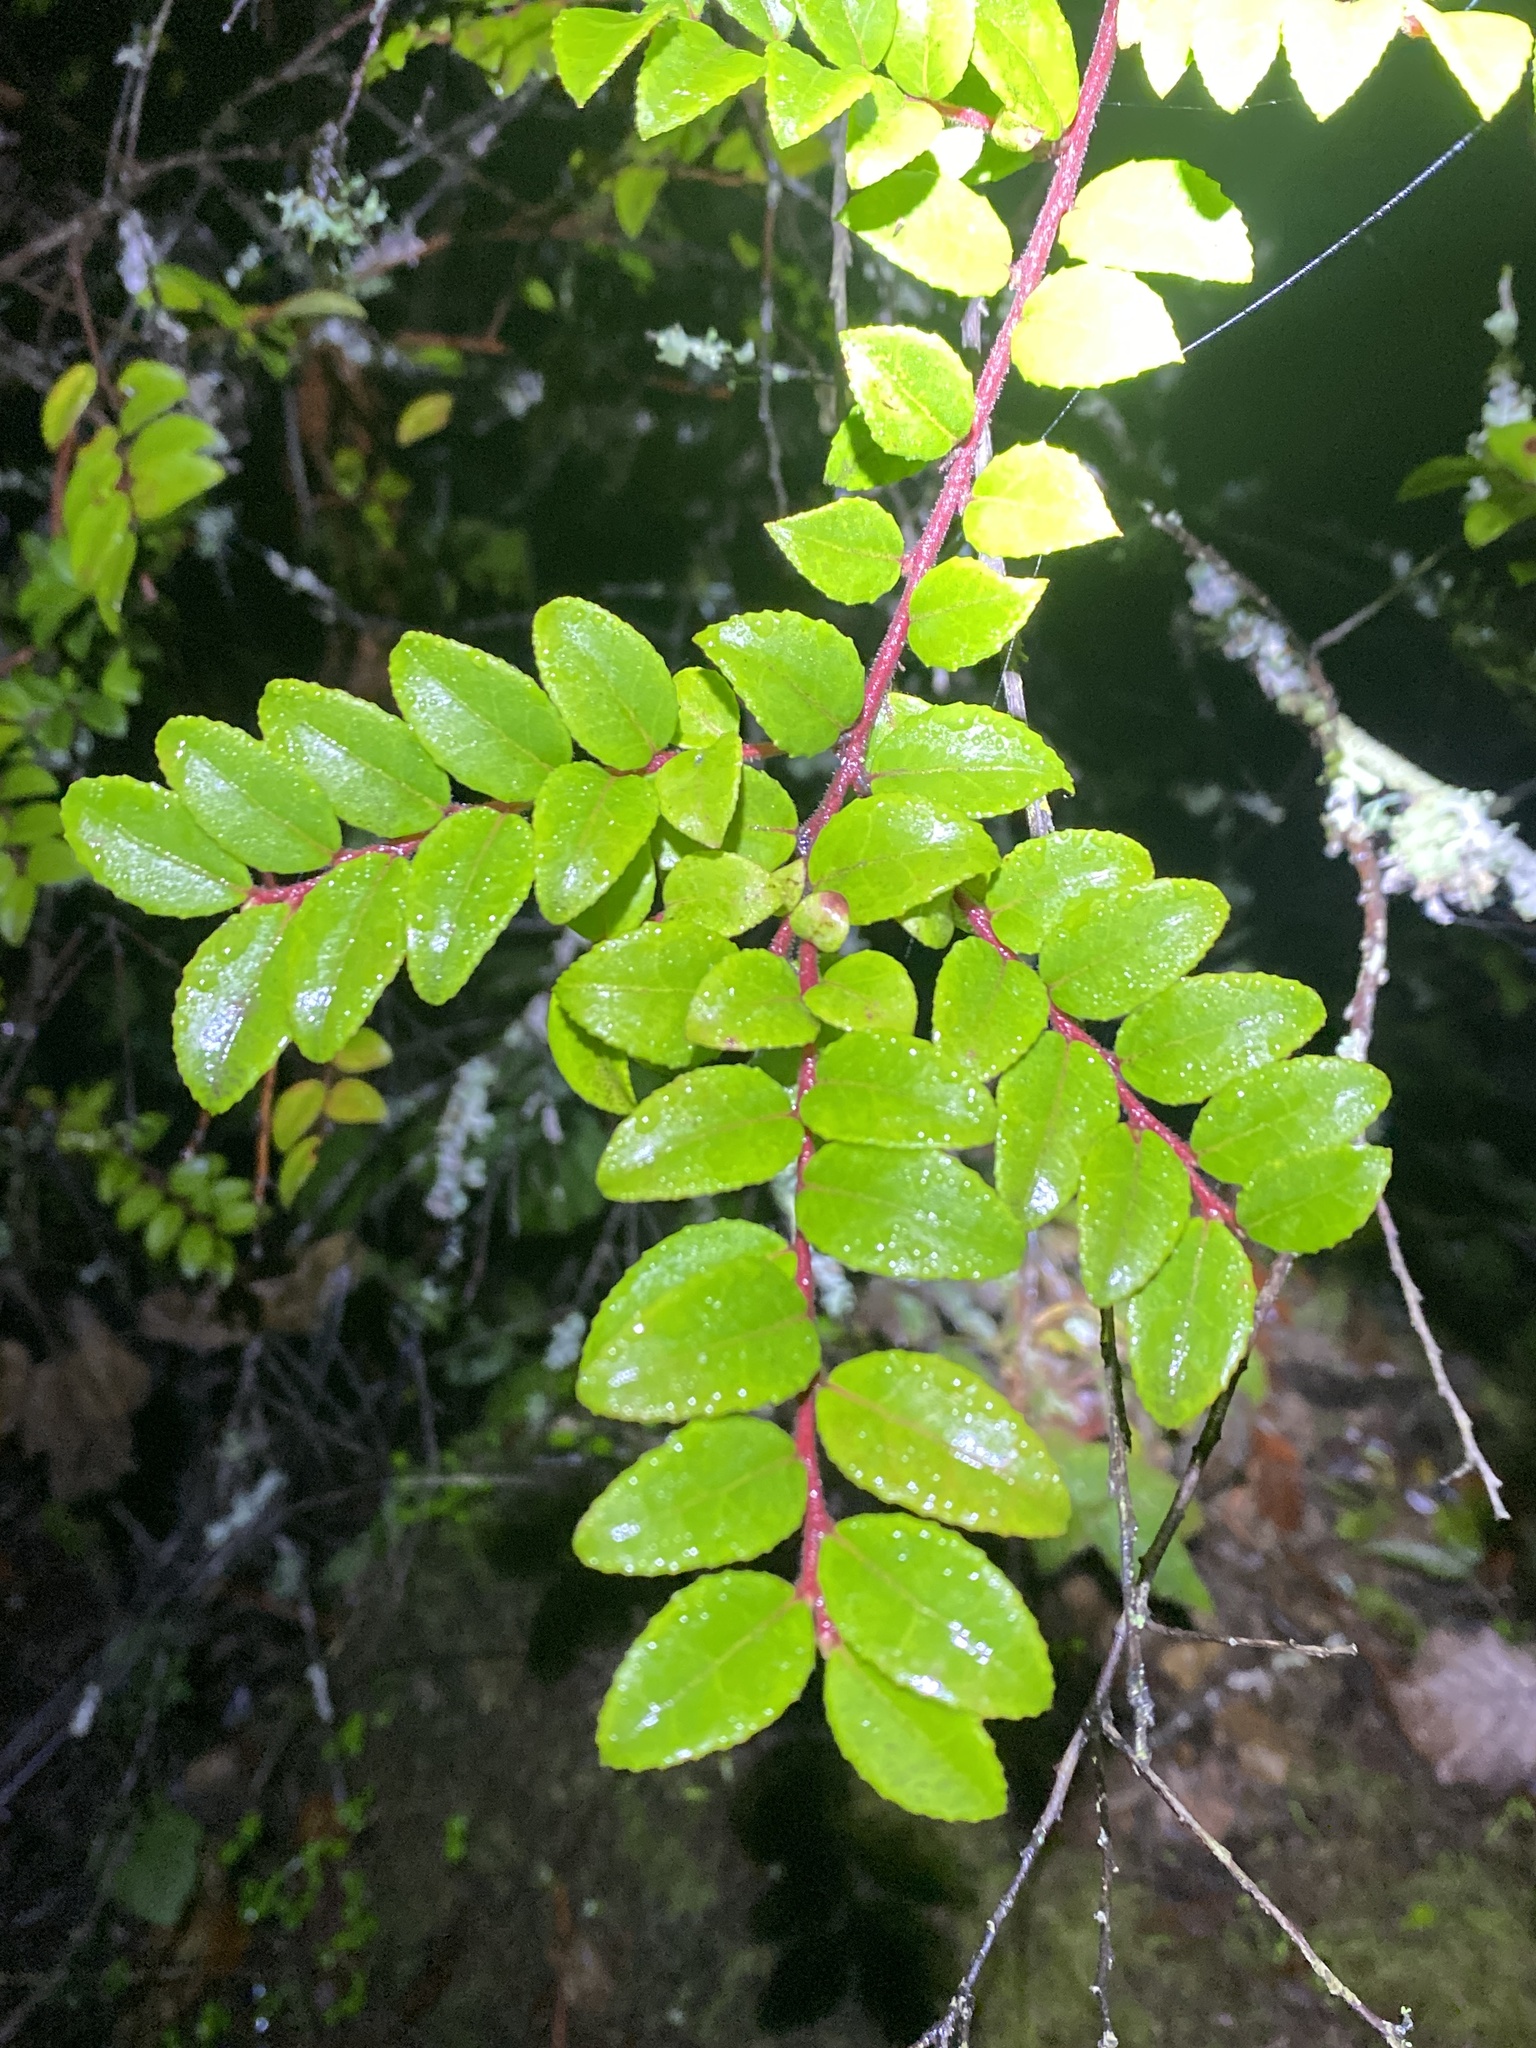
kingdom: Plantae
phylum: Tracheophyta
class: Magnoliopsida
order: Ericales
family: Ericaceae
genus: Vaccinium
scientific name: Vaccinium ovatum
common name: California-huckleberry
